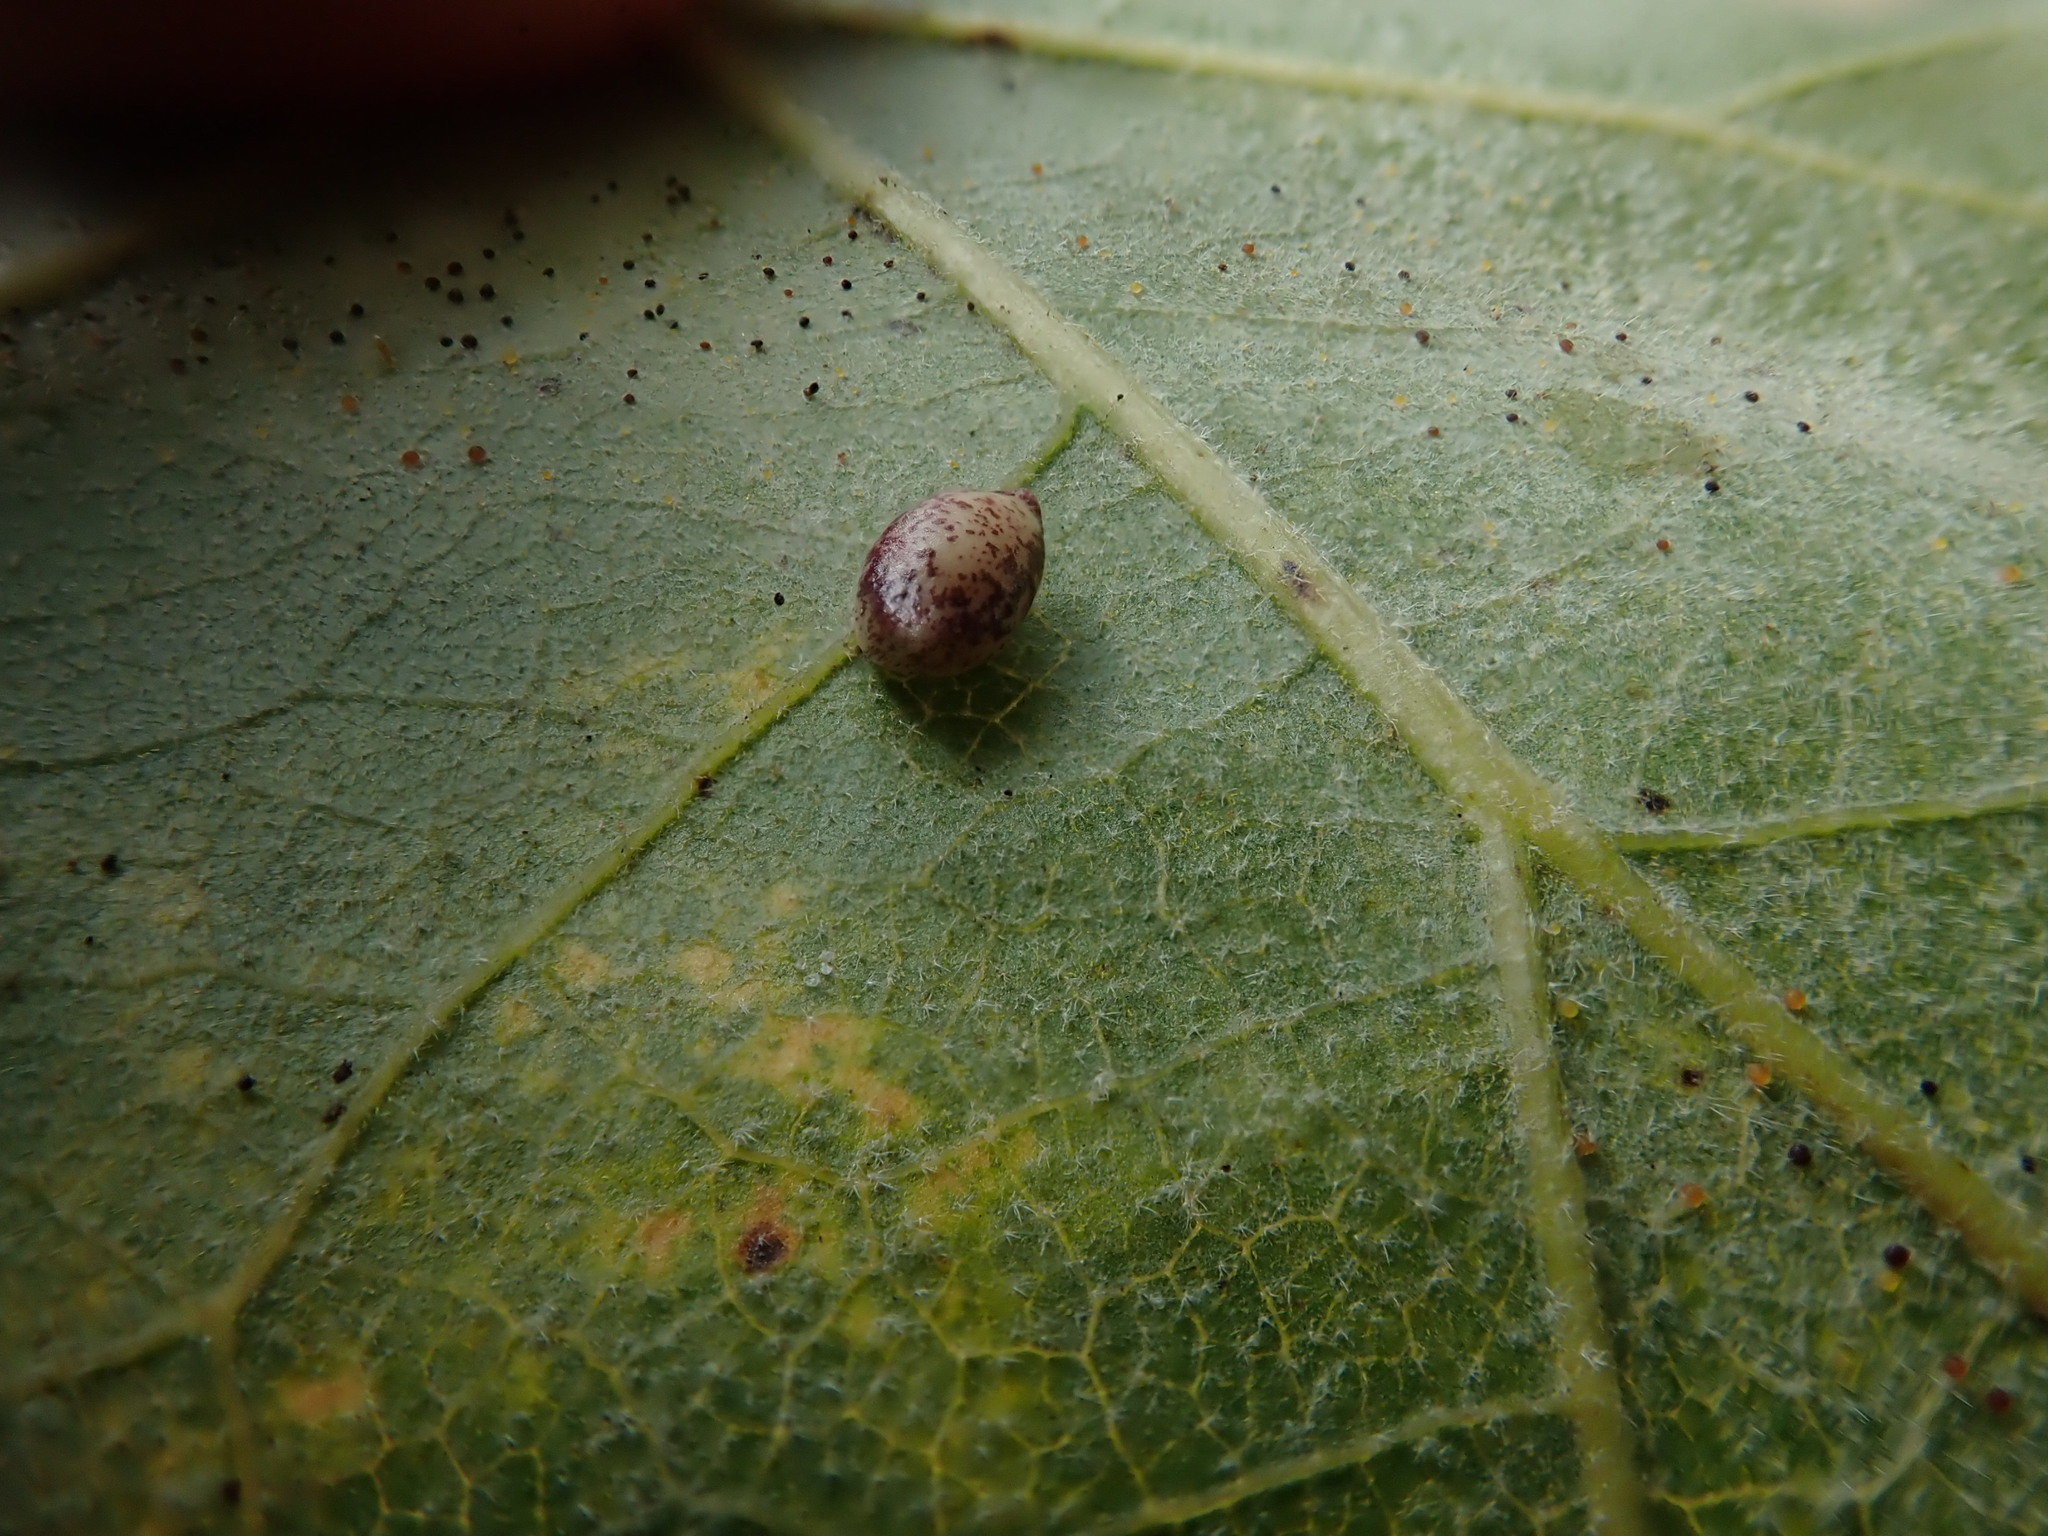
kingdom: Animalia
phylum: Arthropoda
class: Insecta
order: Hymenoptera
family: Cynipidae
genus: Dryocosmus
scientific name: Dryocosmus
